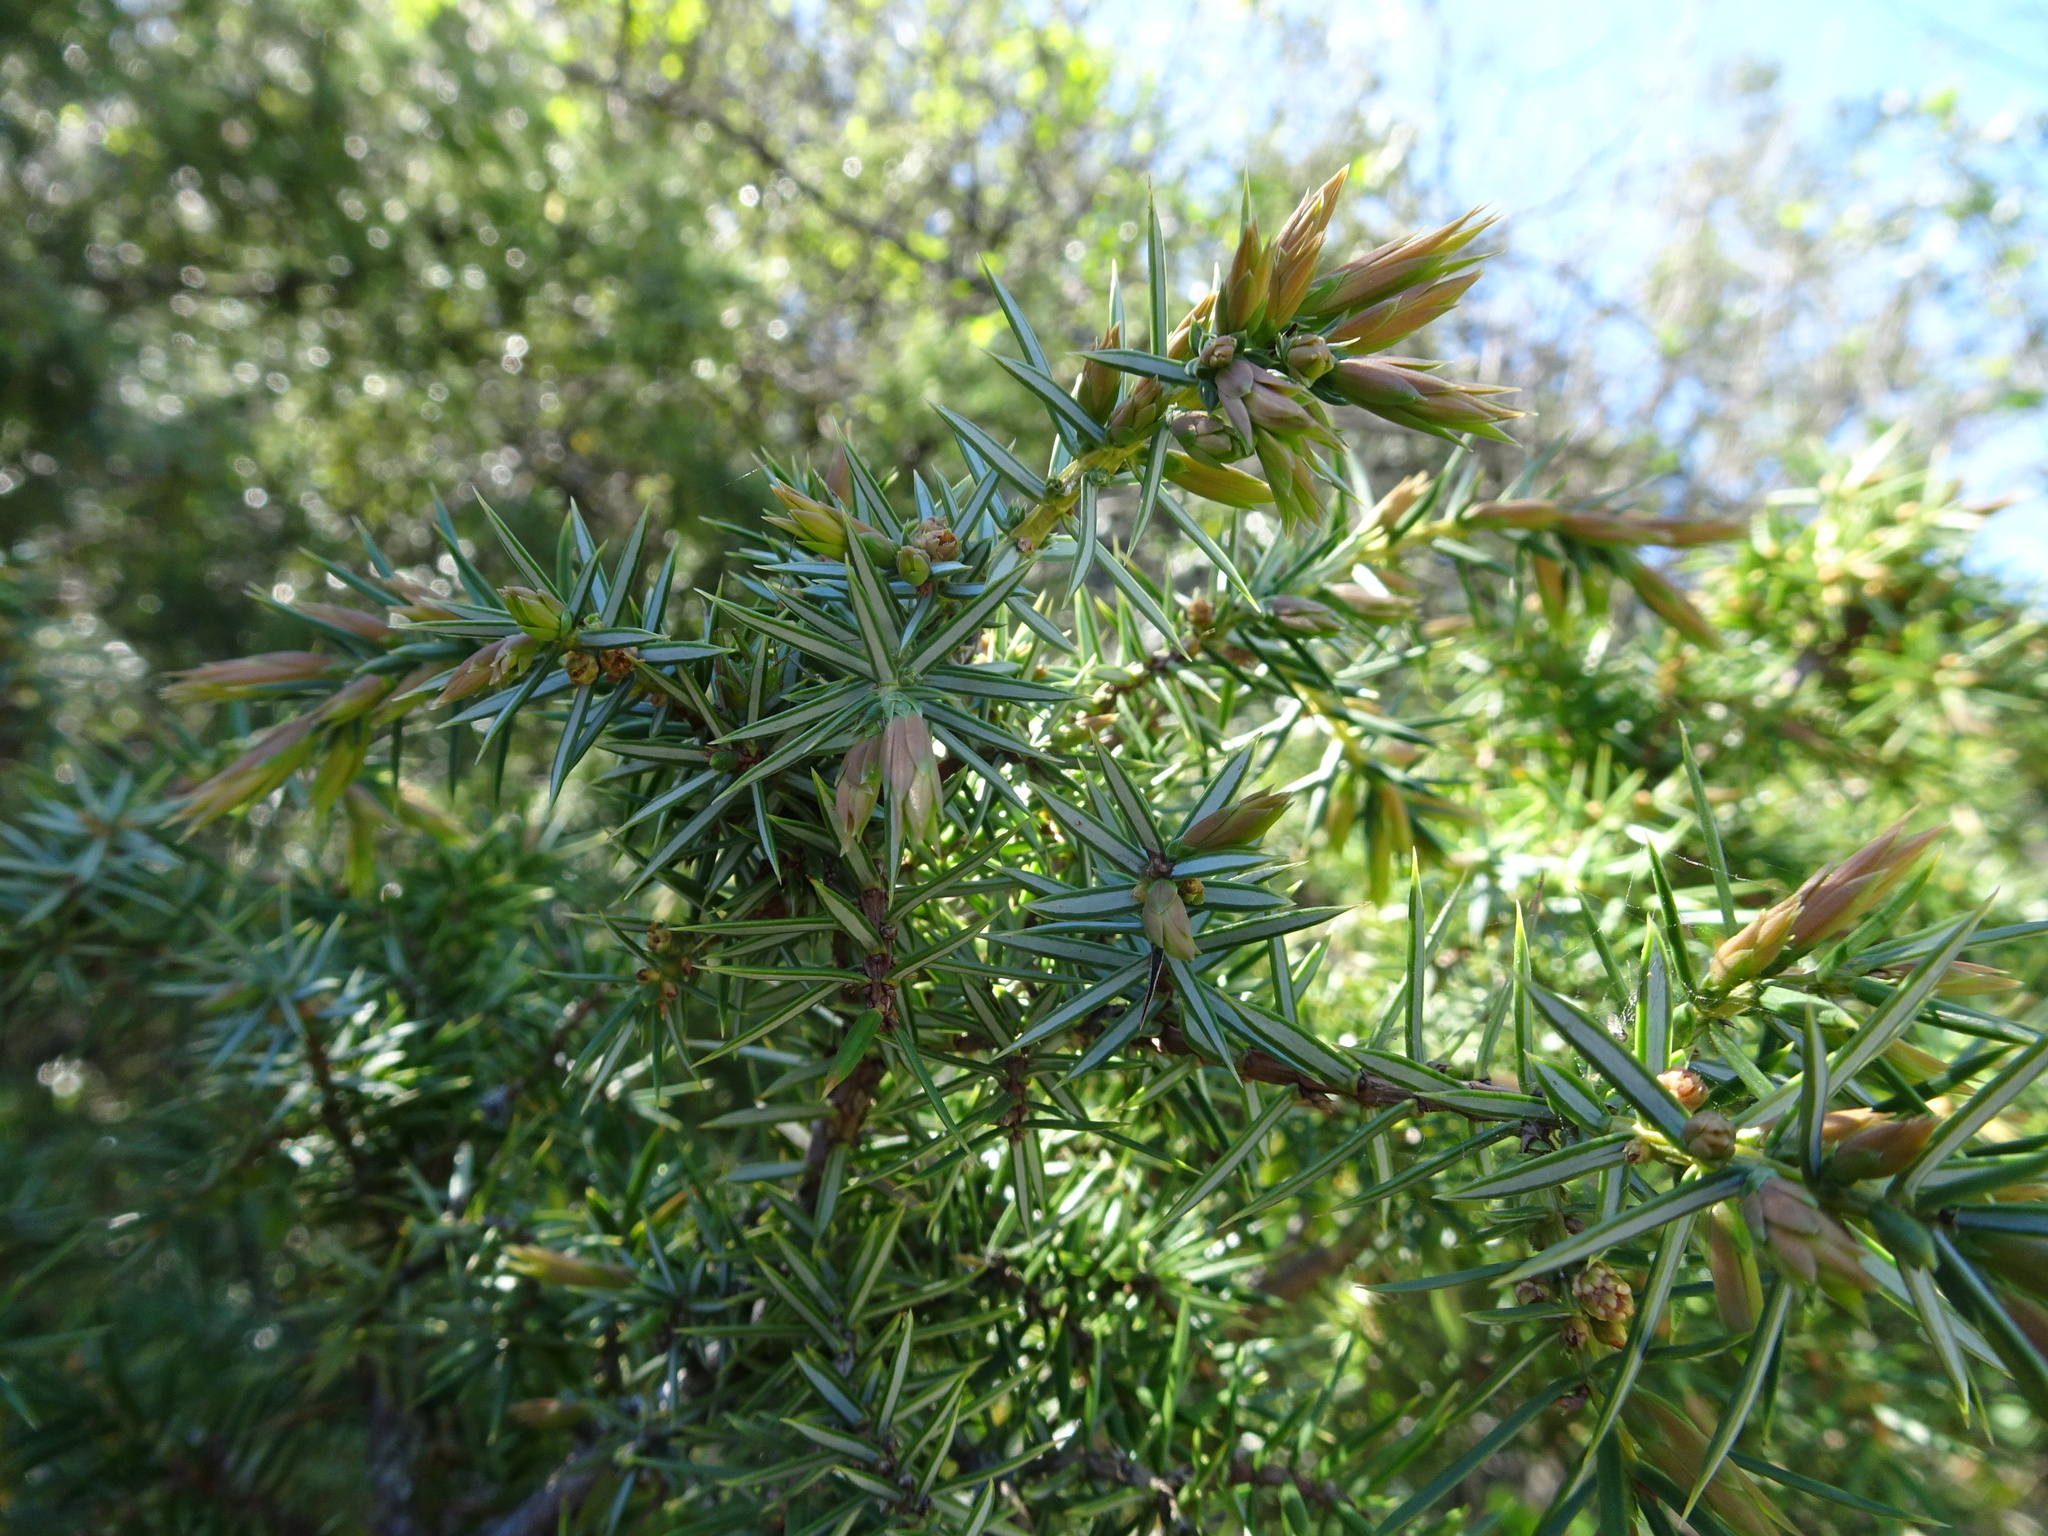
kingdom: Plantae
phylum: Tracheophyta
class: Pinopsida
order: Pinales
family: Cupressaceae
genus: Juniperus
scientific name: Juniperus communis
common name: Common juniper
